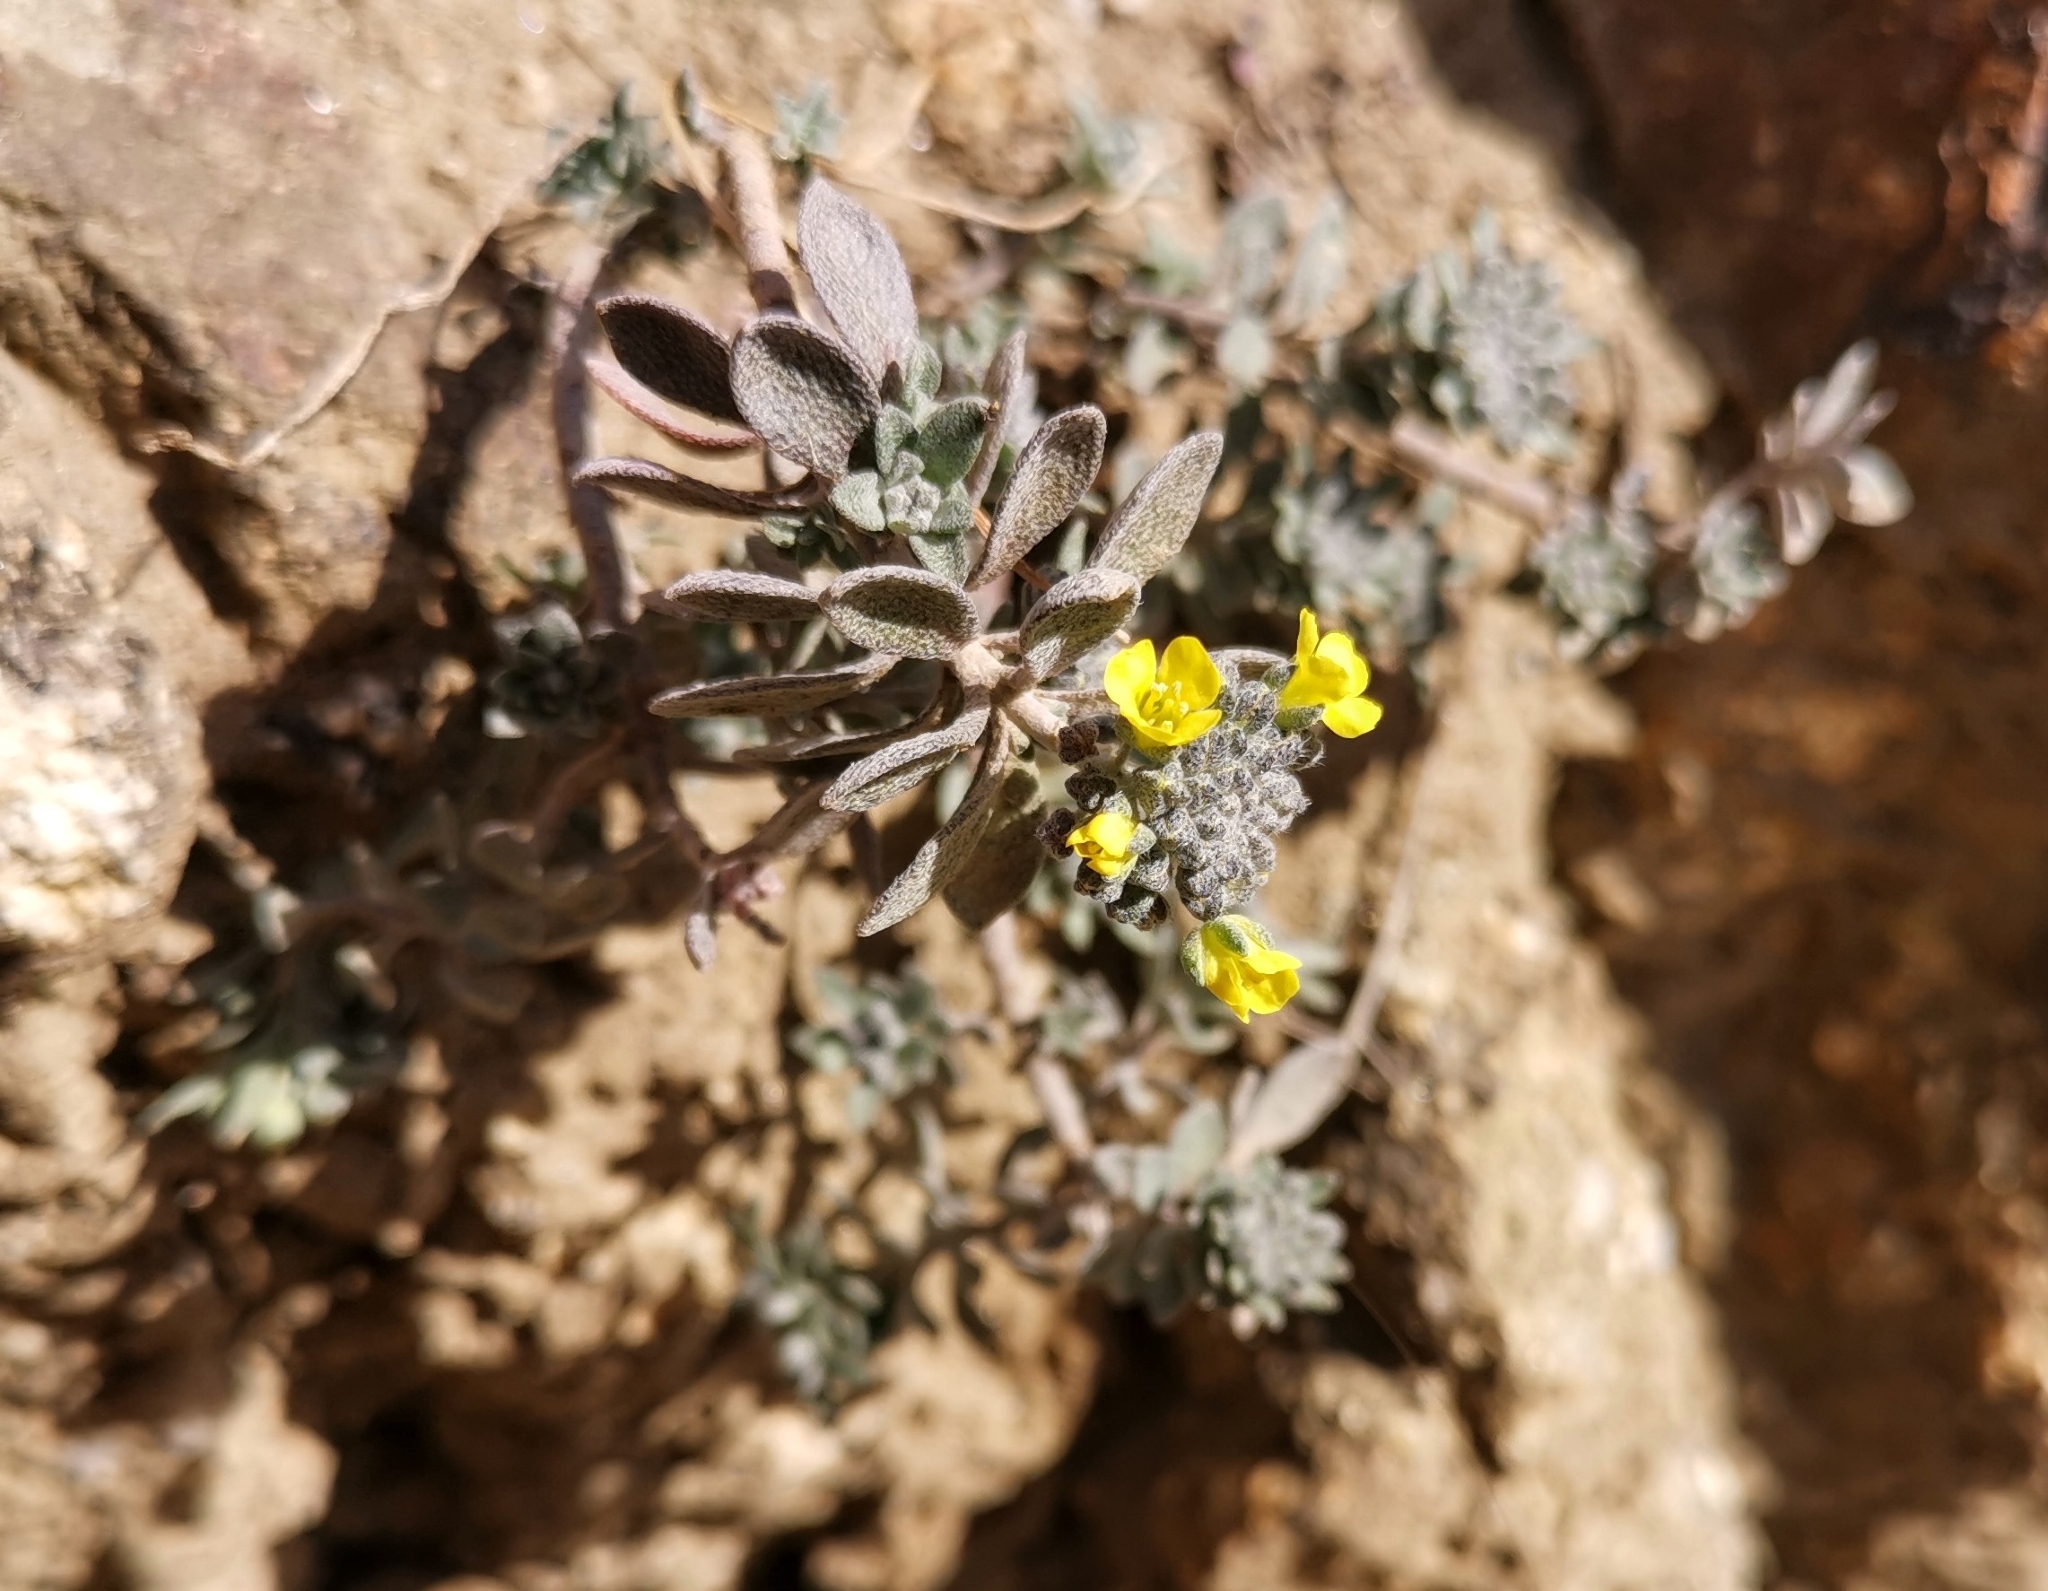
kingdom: Plantae
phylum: Tracheophyta
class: Magnoliopsida
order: Brassicales
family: Brassicaceae
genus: Alyssum
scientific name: Alyssum gmelinii
